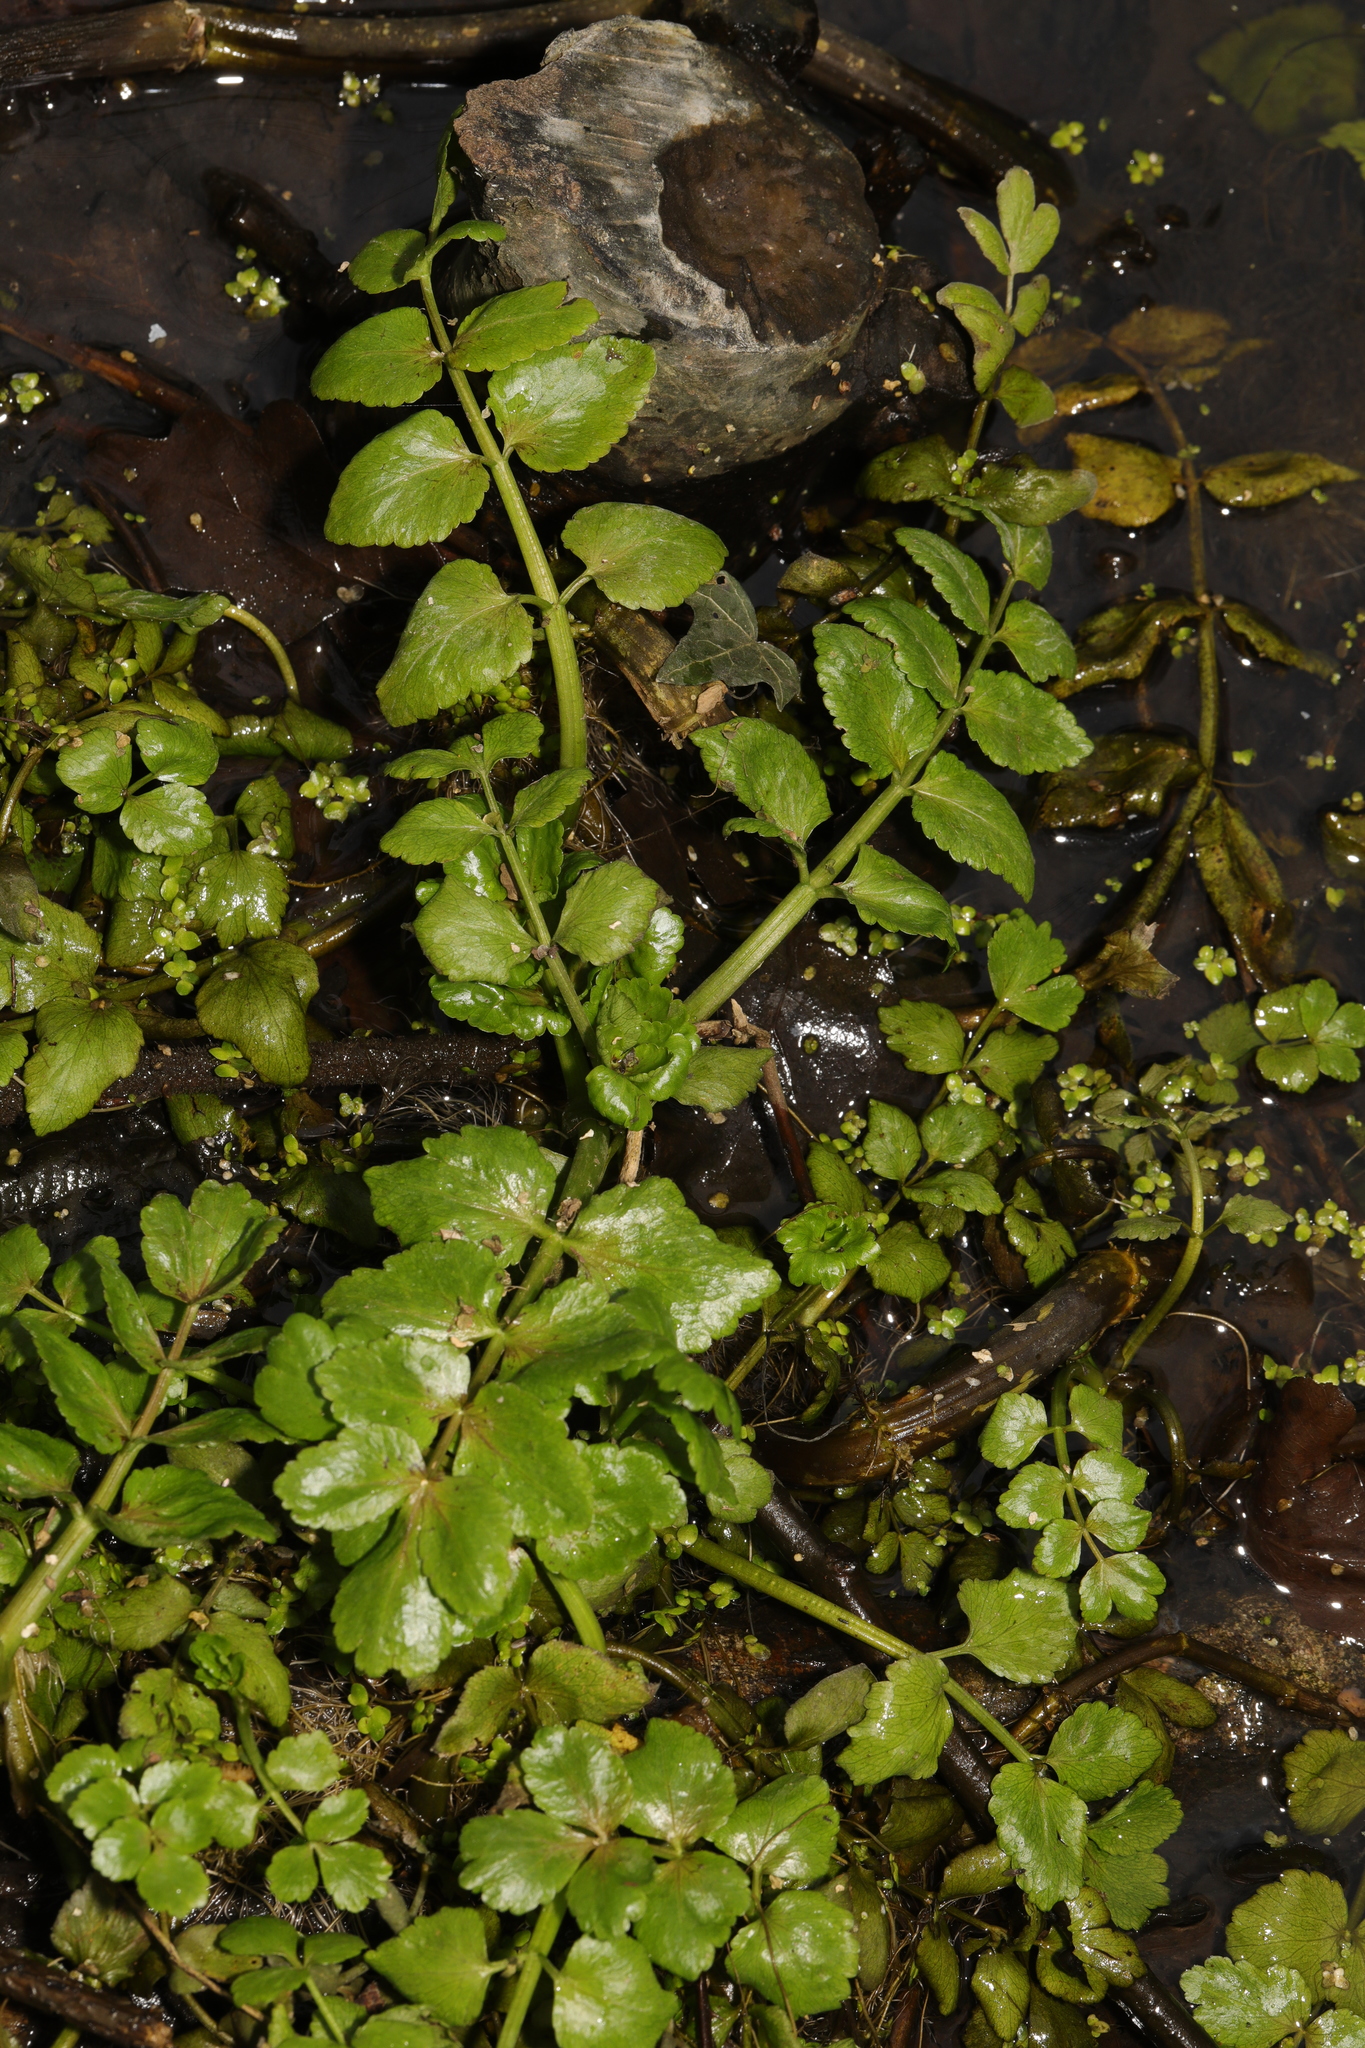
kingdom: Plantae
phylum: Tracheophyta
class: Magnoliopsida
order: Apiales
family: Apiaceae
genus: Helosciadium
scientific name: Helosciadium nodiflorum
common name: Fool's-watercress
